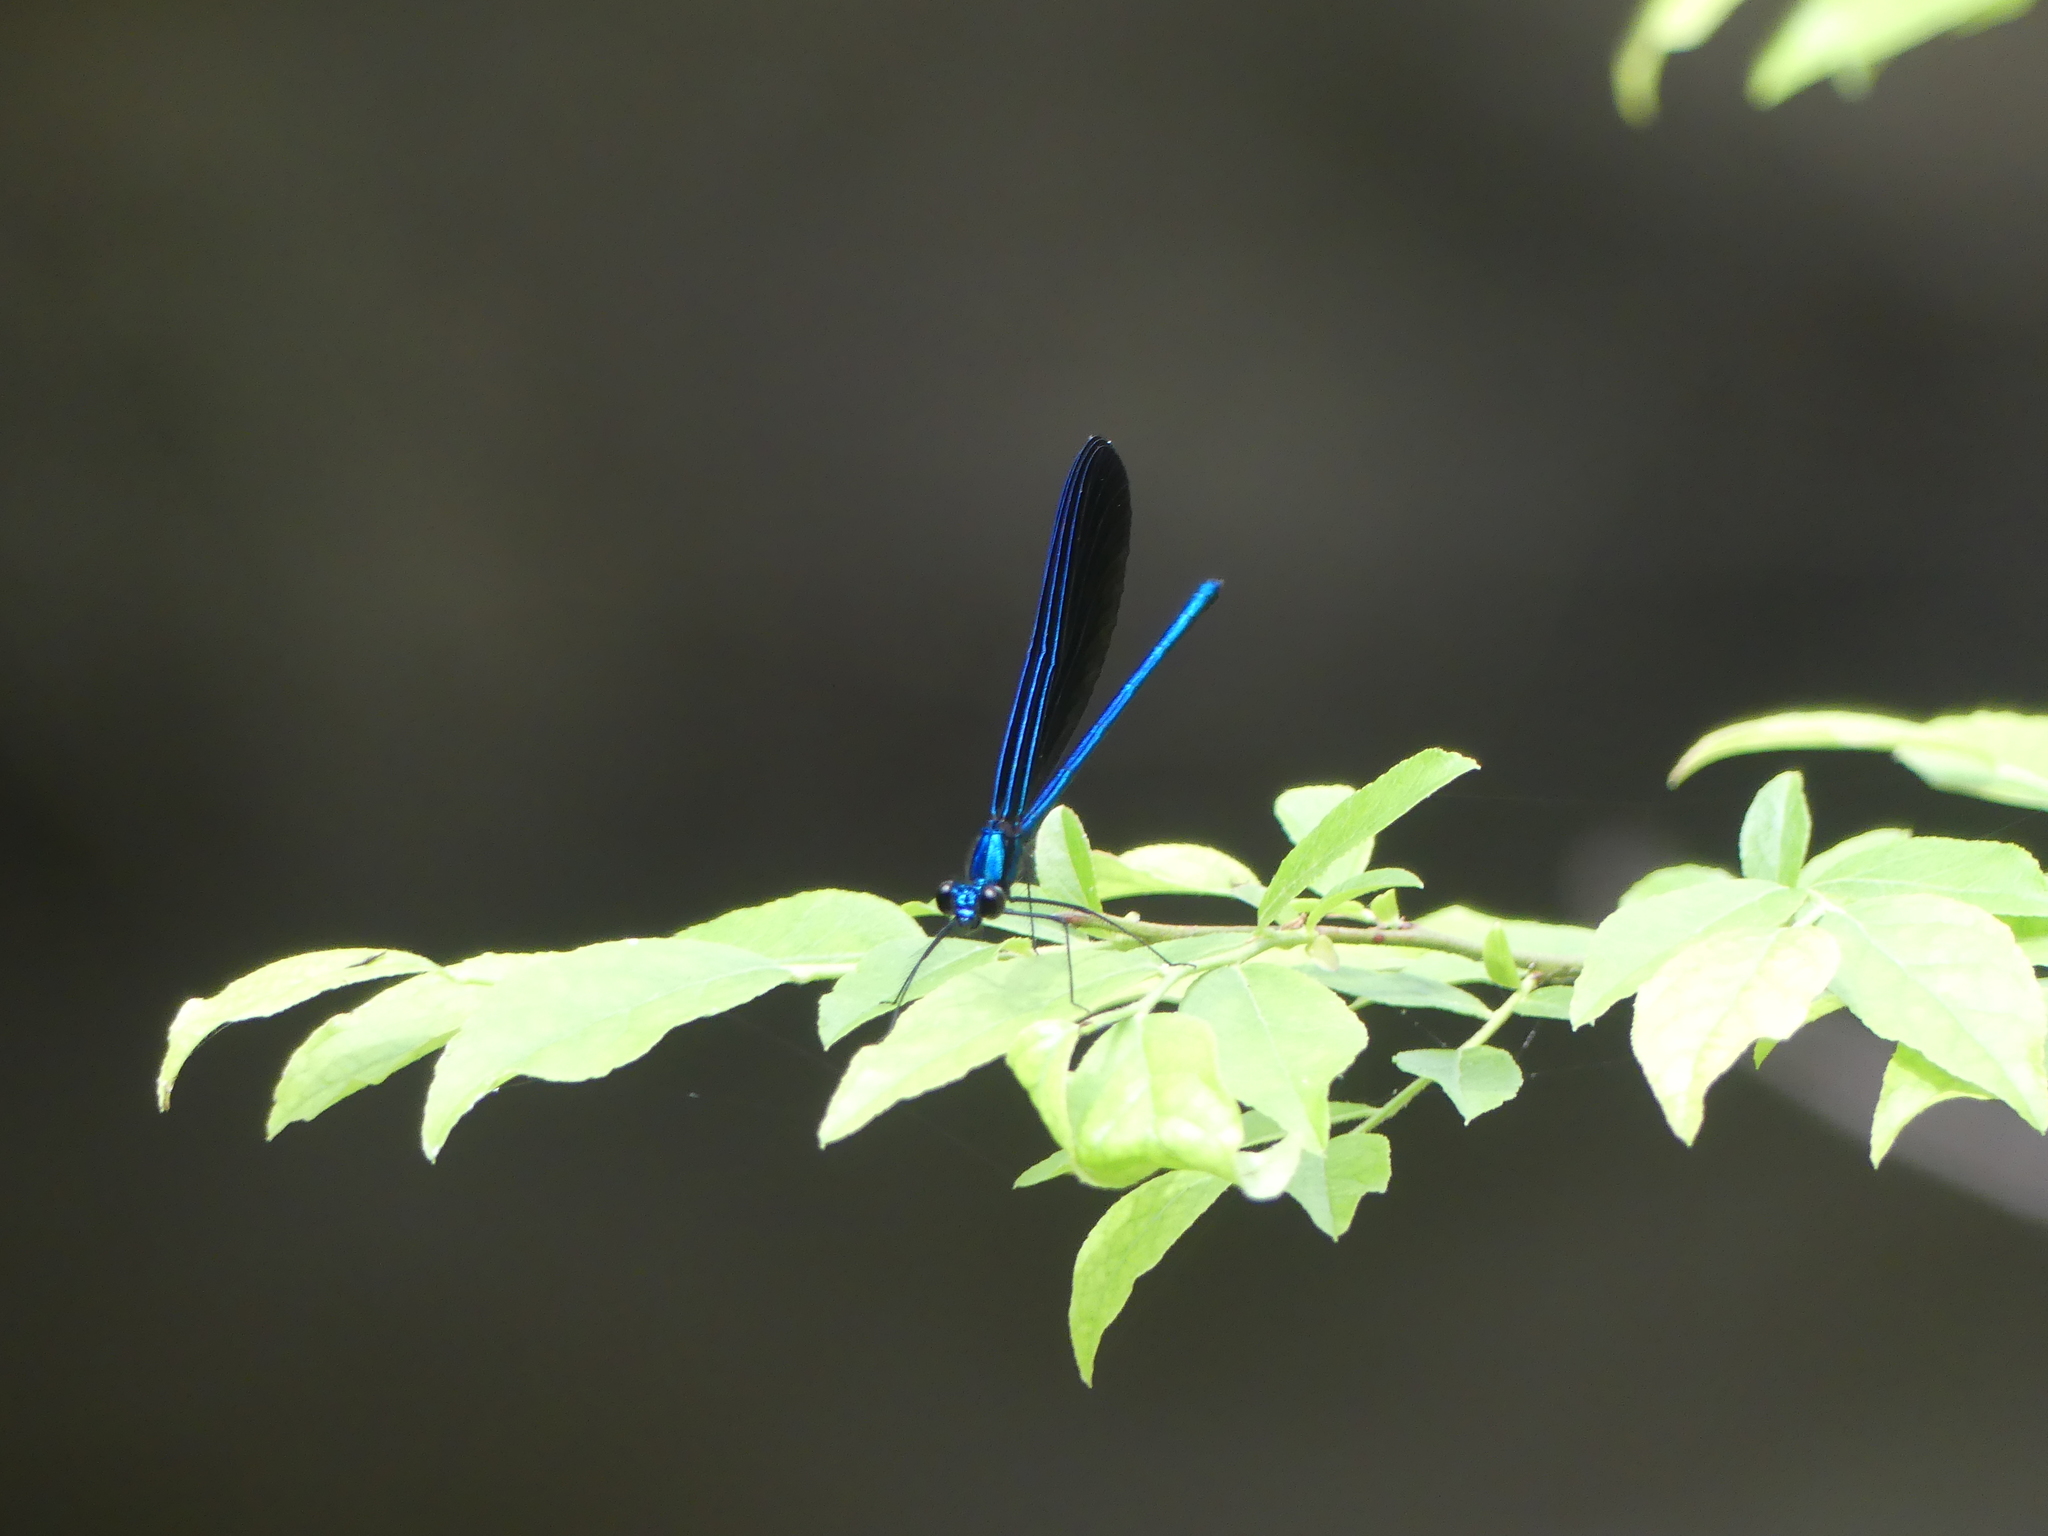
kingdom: Animalia
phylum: Arthropoda
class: Insecta
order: Odonata
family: Calopterygidae
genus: Calopteryx
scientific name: Calopteryx maculata
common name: Ebony jewelwing
